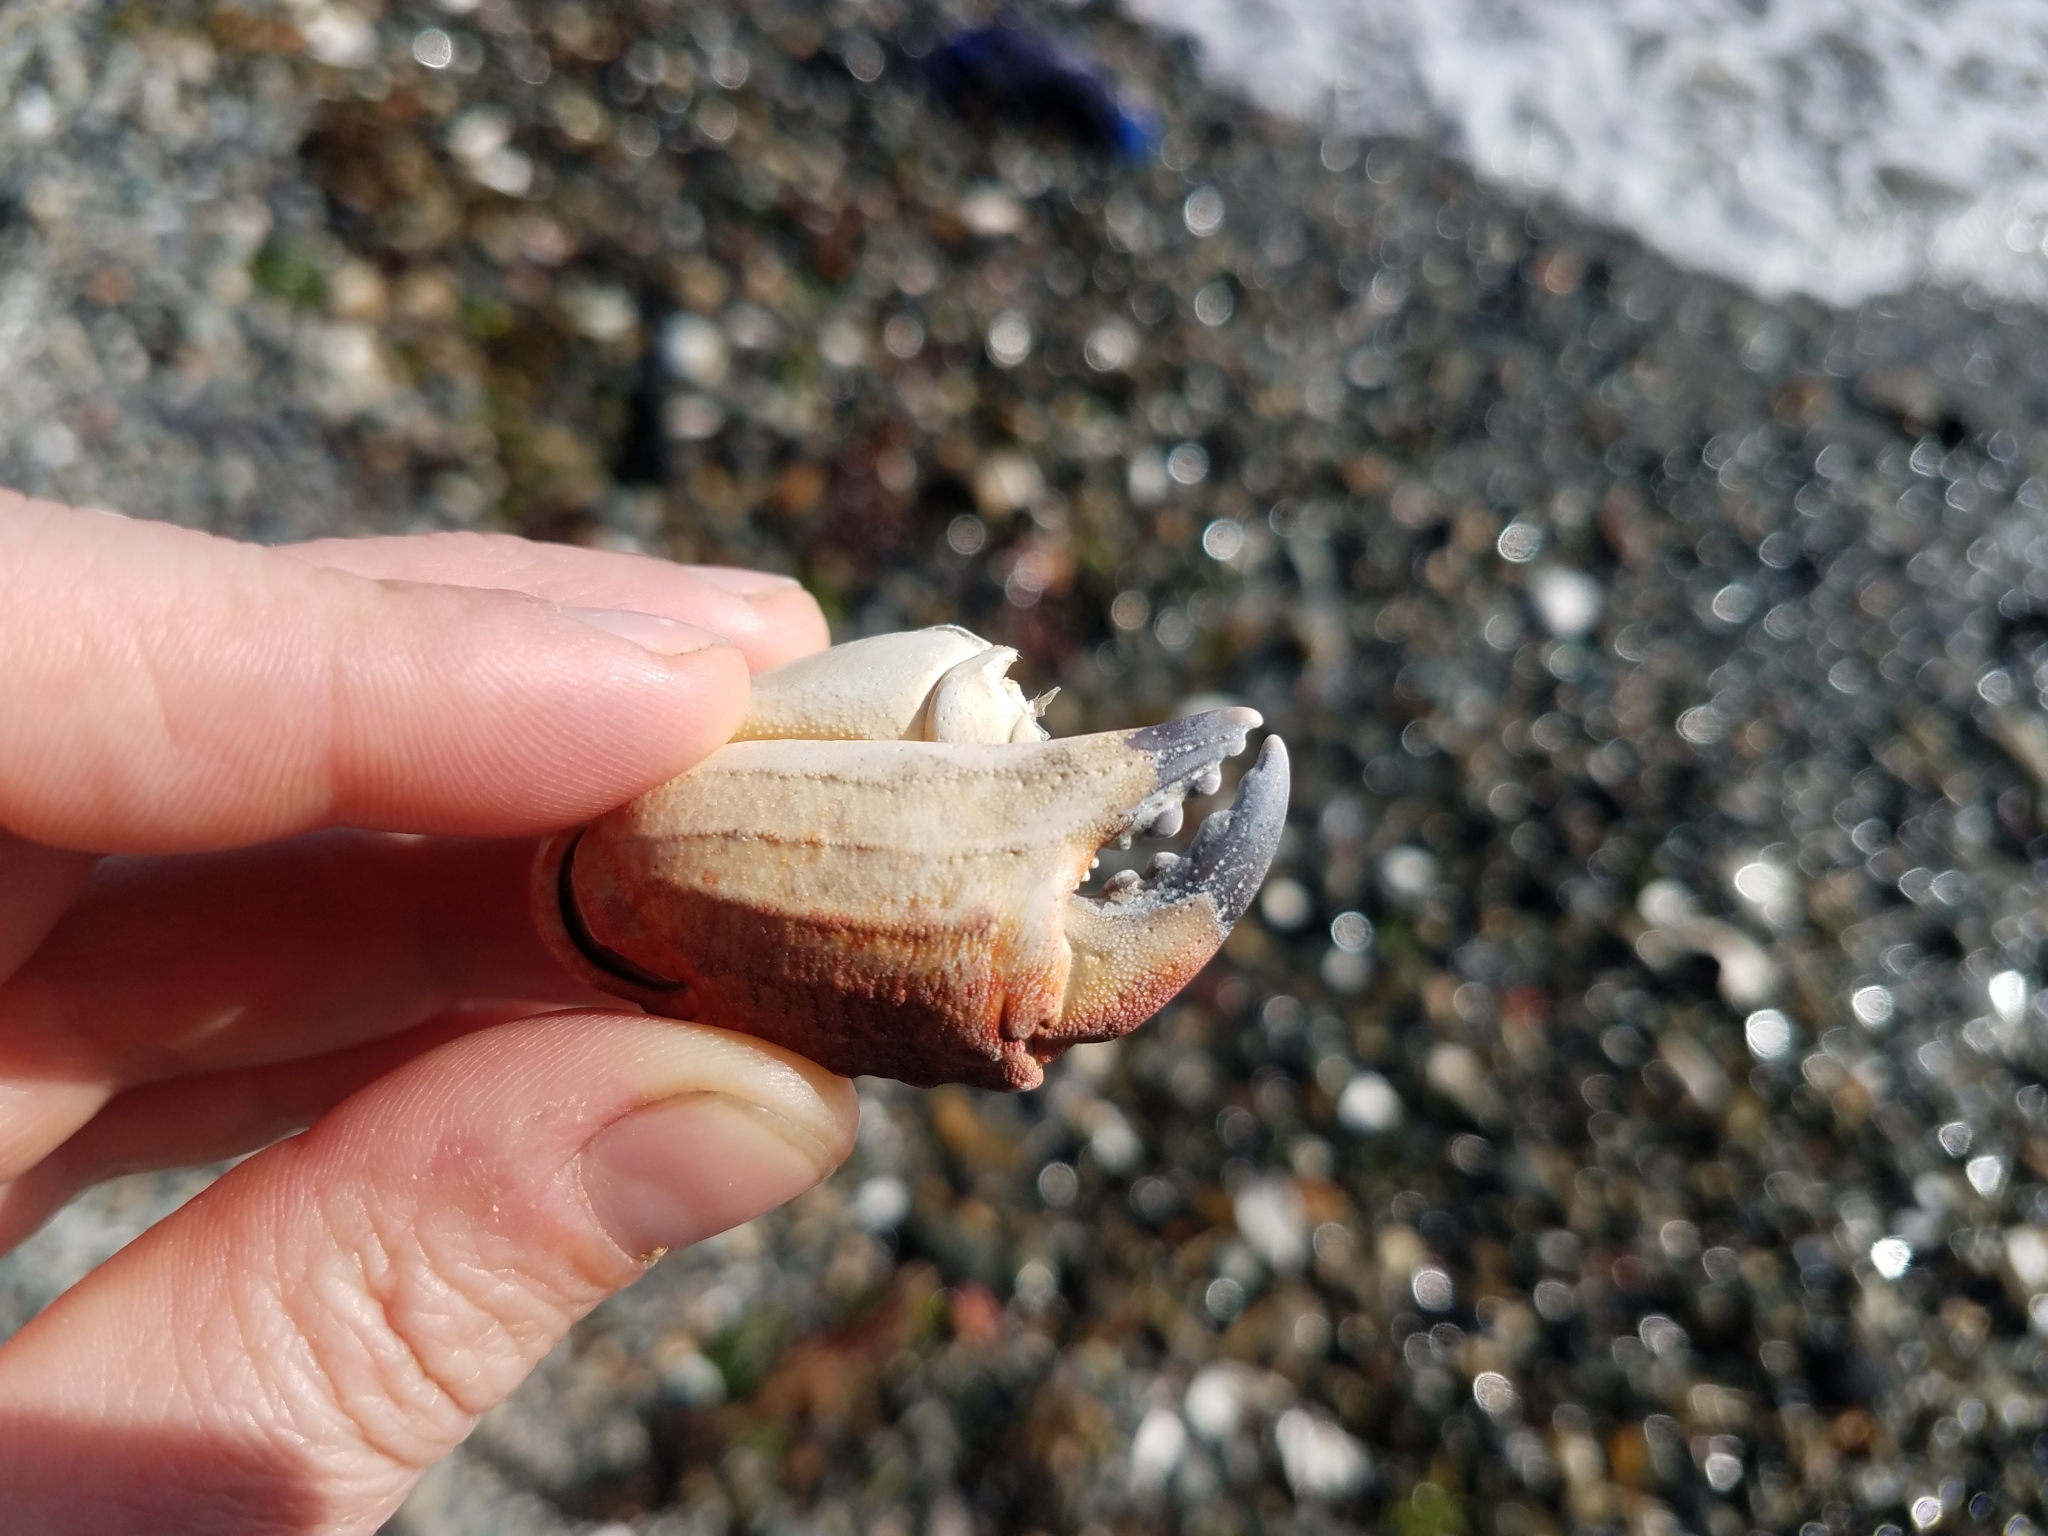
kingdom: Animalia
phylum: Arthropoda
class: Malacostraca
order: Decapoda
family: Cancridae
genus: Cancer
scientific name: Cancer productus
